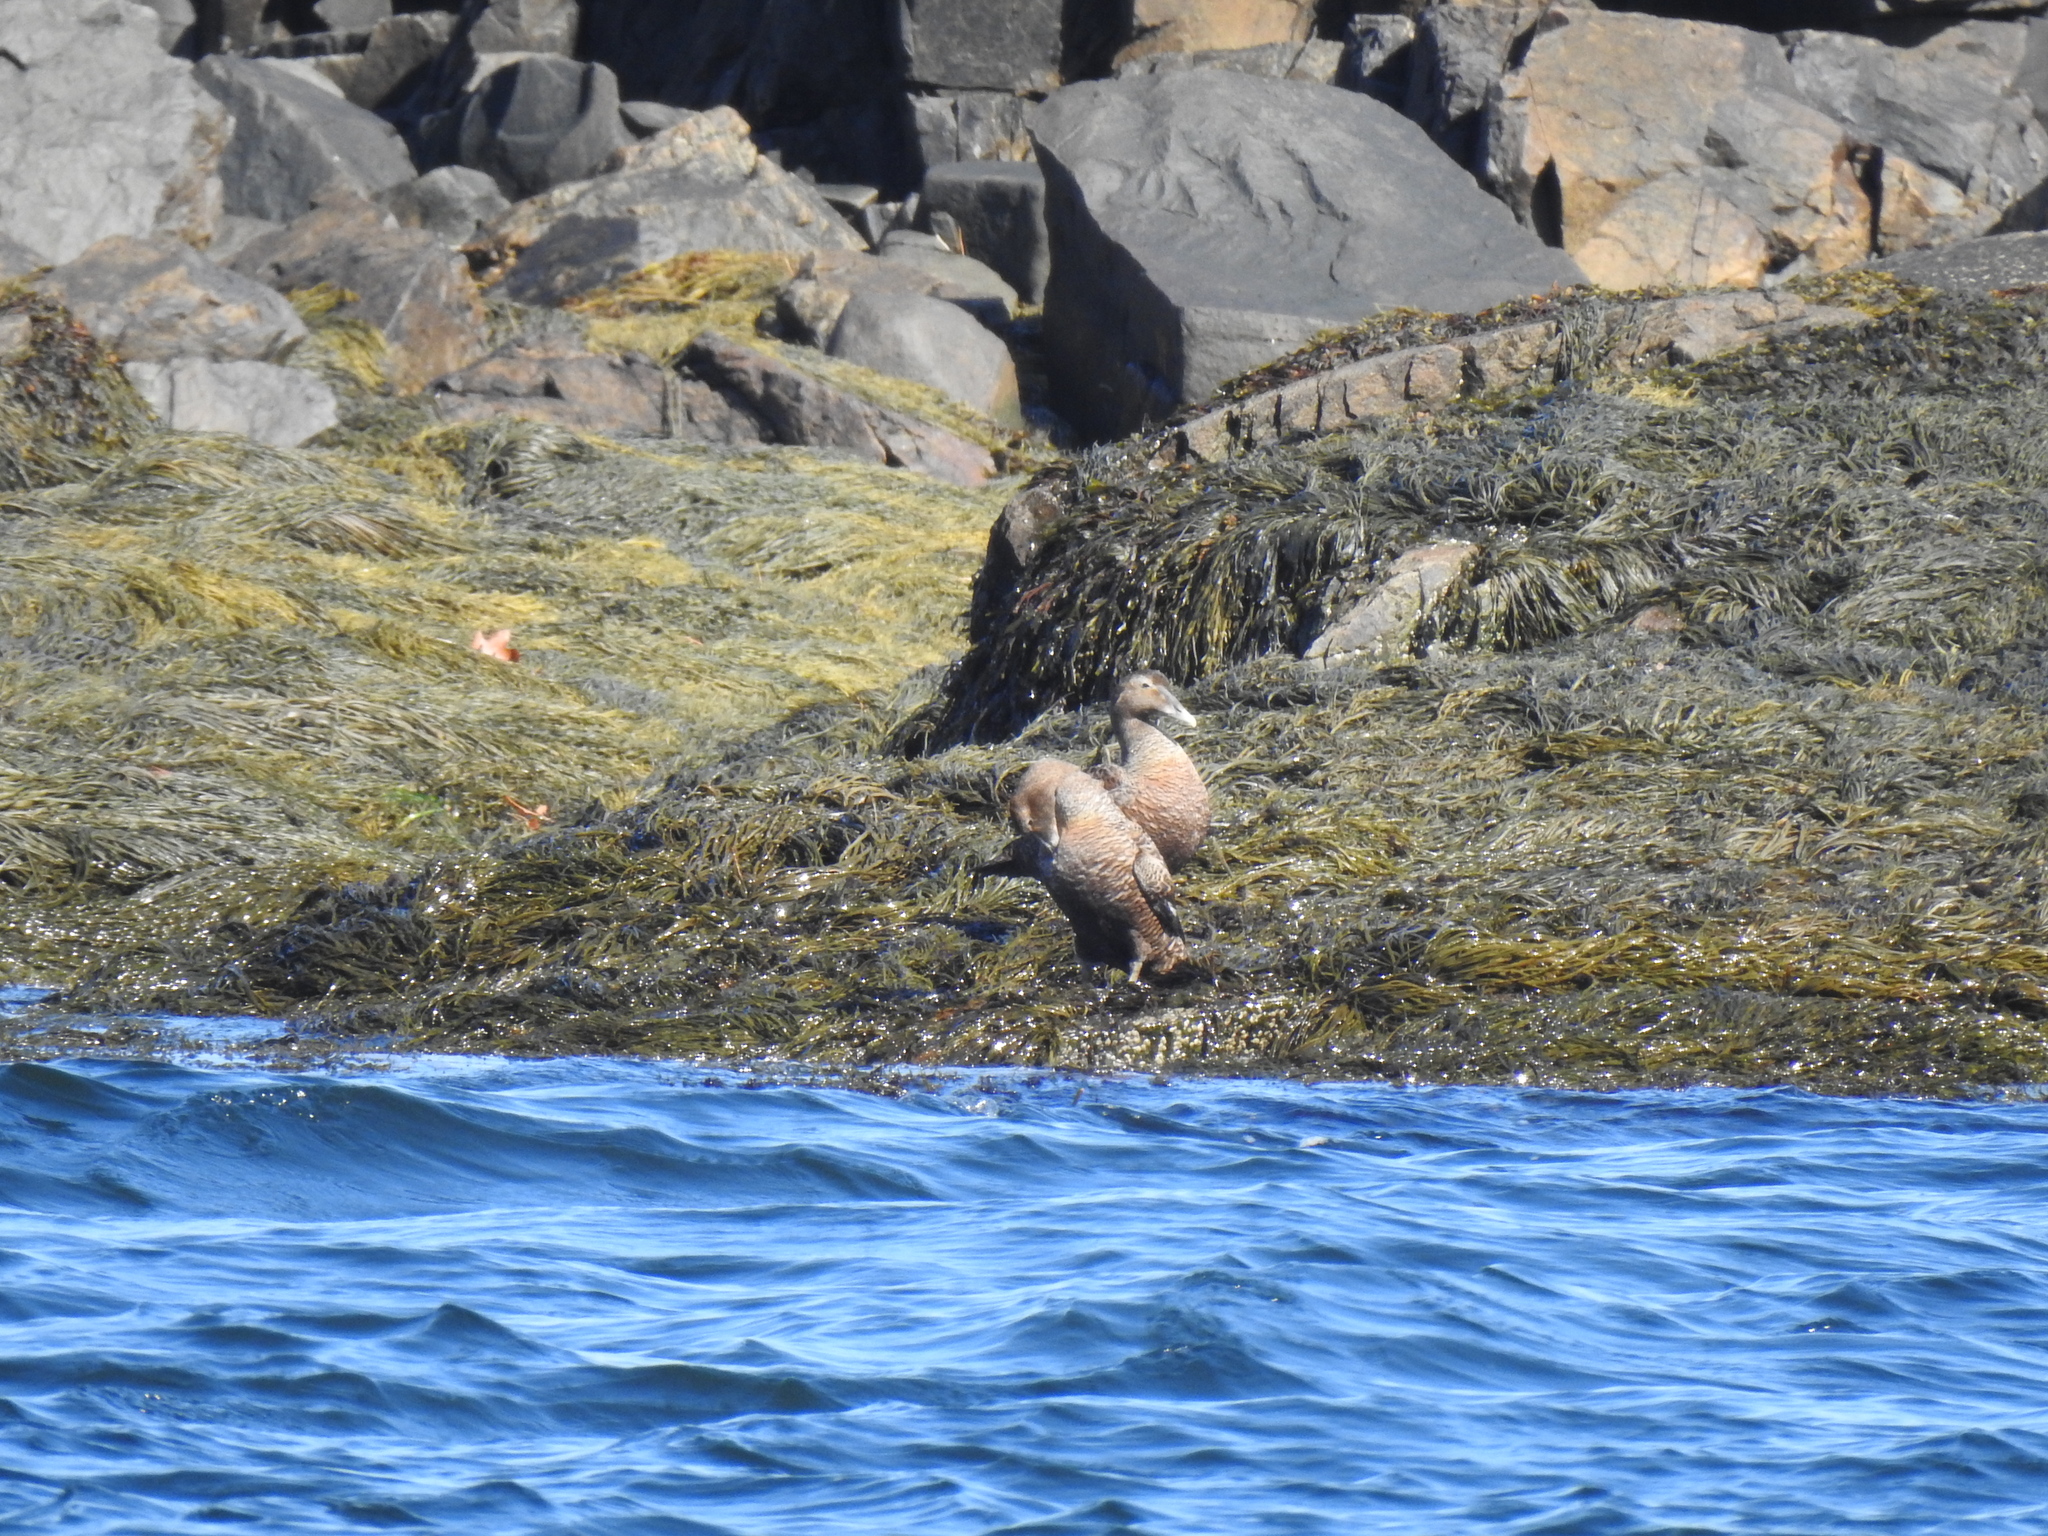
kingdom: Animalia
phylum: Chordata
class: Aves
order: Anseriformes
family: Anatidae
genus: Somateria
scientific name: Somateria mollissima
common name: Common eider
